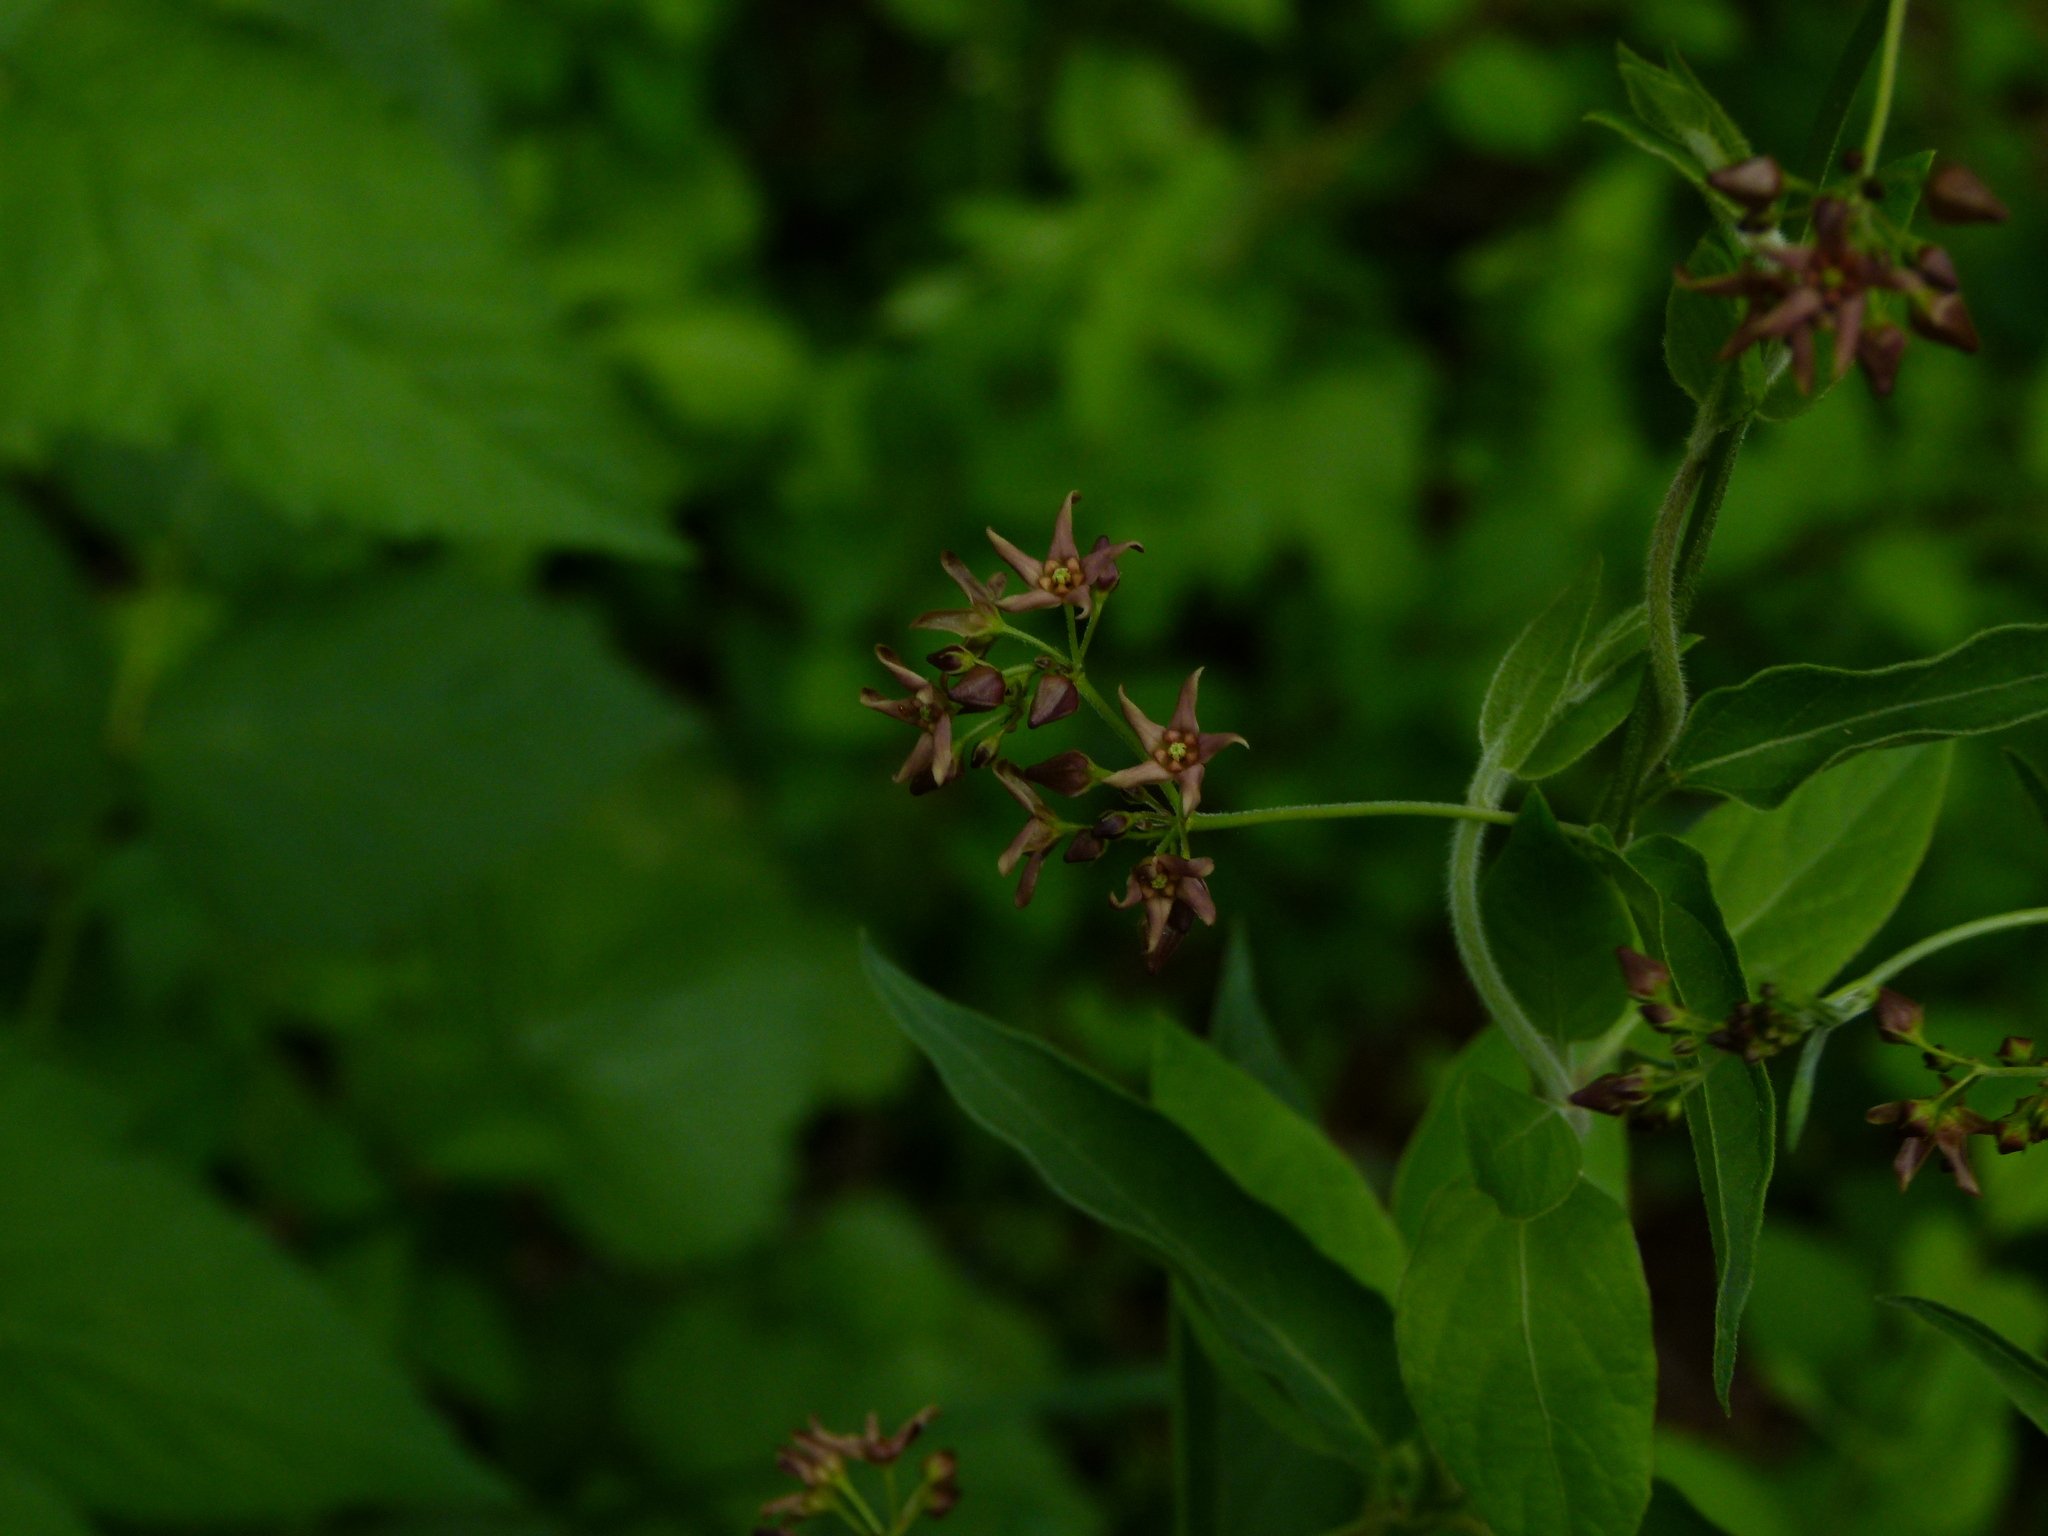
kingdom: Plantae
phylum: Tracheophyta
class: Magnoliopsida
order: Gentianales
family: Apocynaceae
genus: Vincetoxicum
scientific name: Vincetoxicum rossicum
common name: Dog-strangling vine
